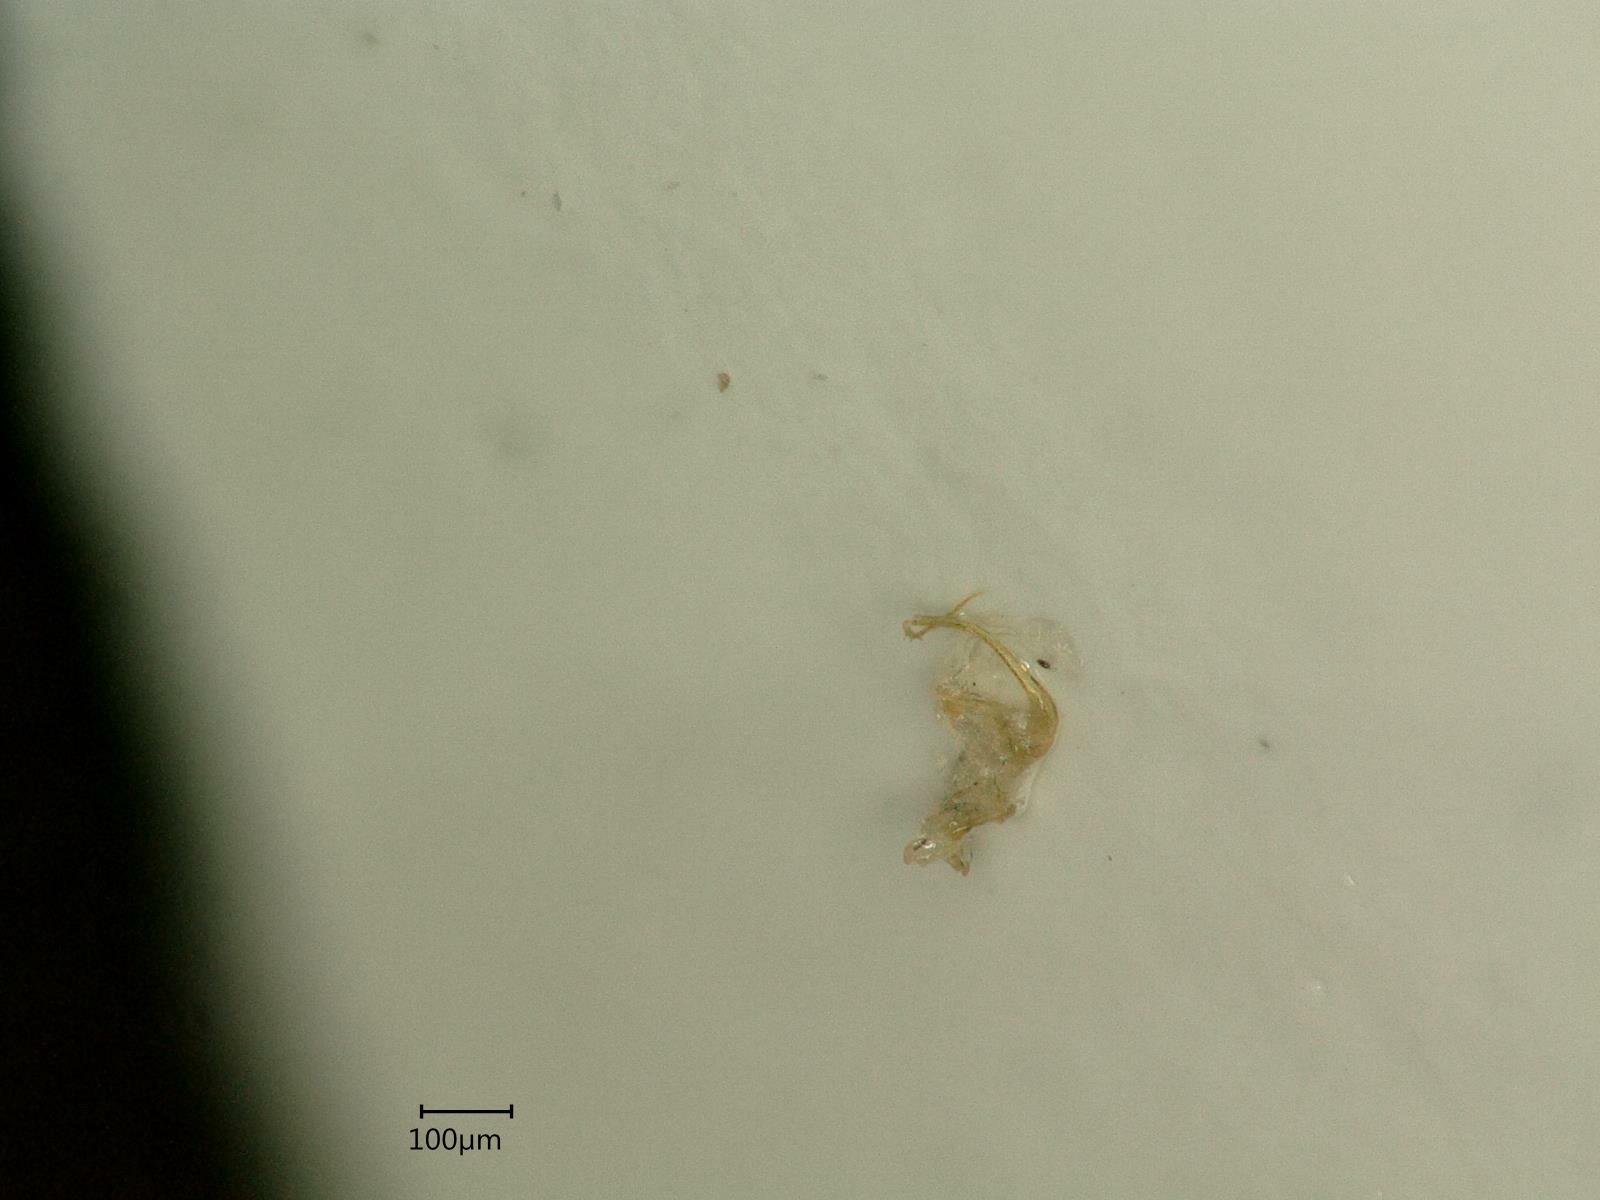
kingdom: Animalia
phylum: Arthropoda
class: Insecta
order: Hemiptera
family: Cicadellidae
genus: Eupteryx
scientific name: Eupteryx cyclops
